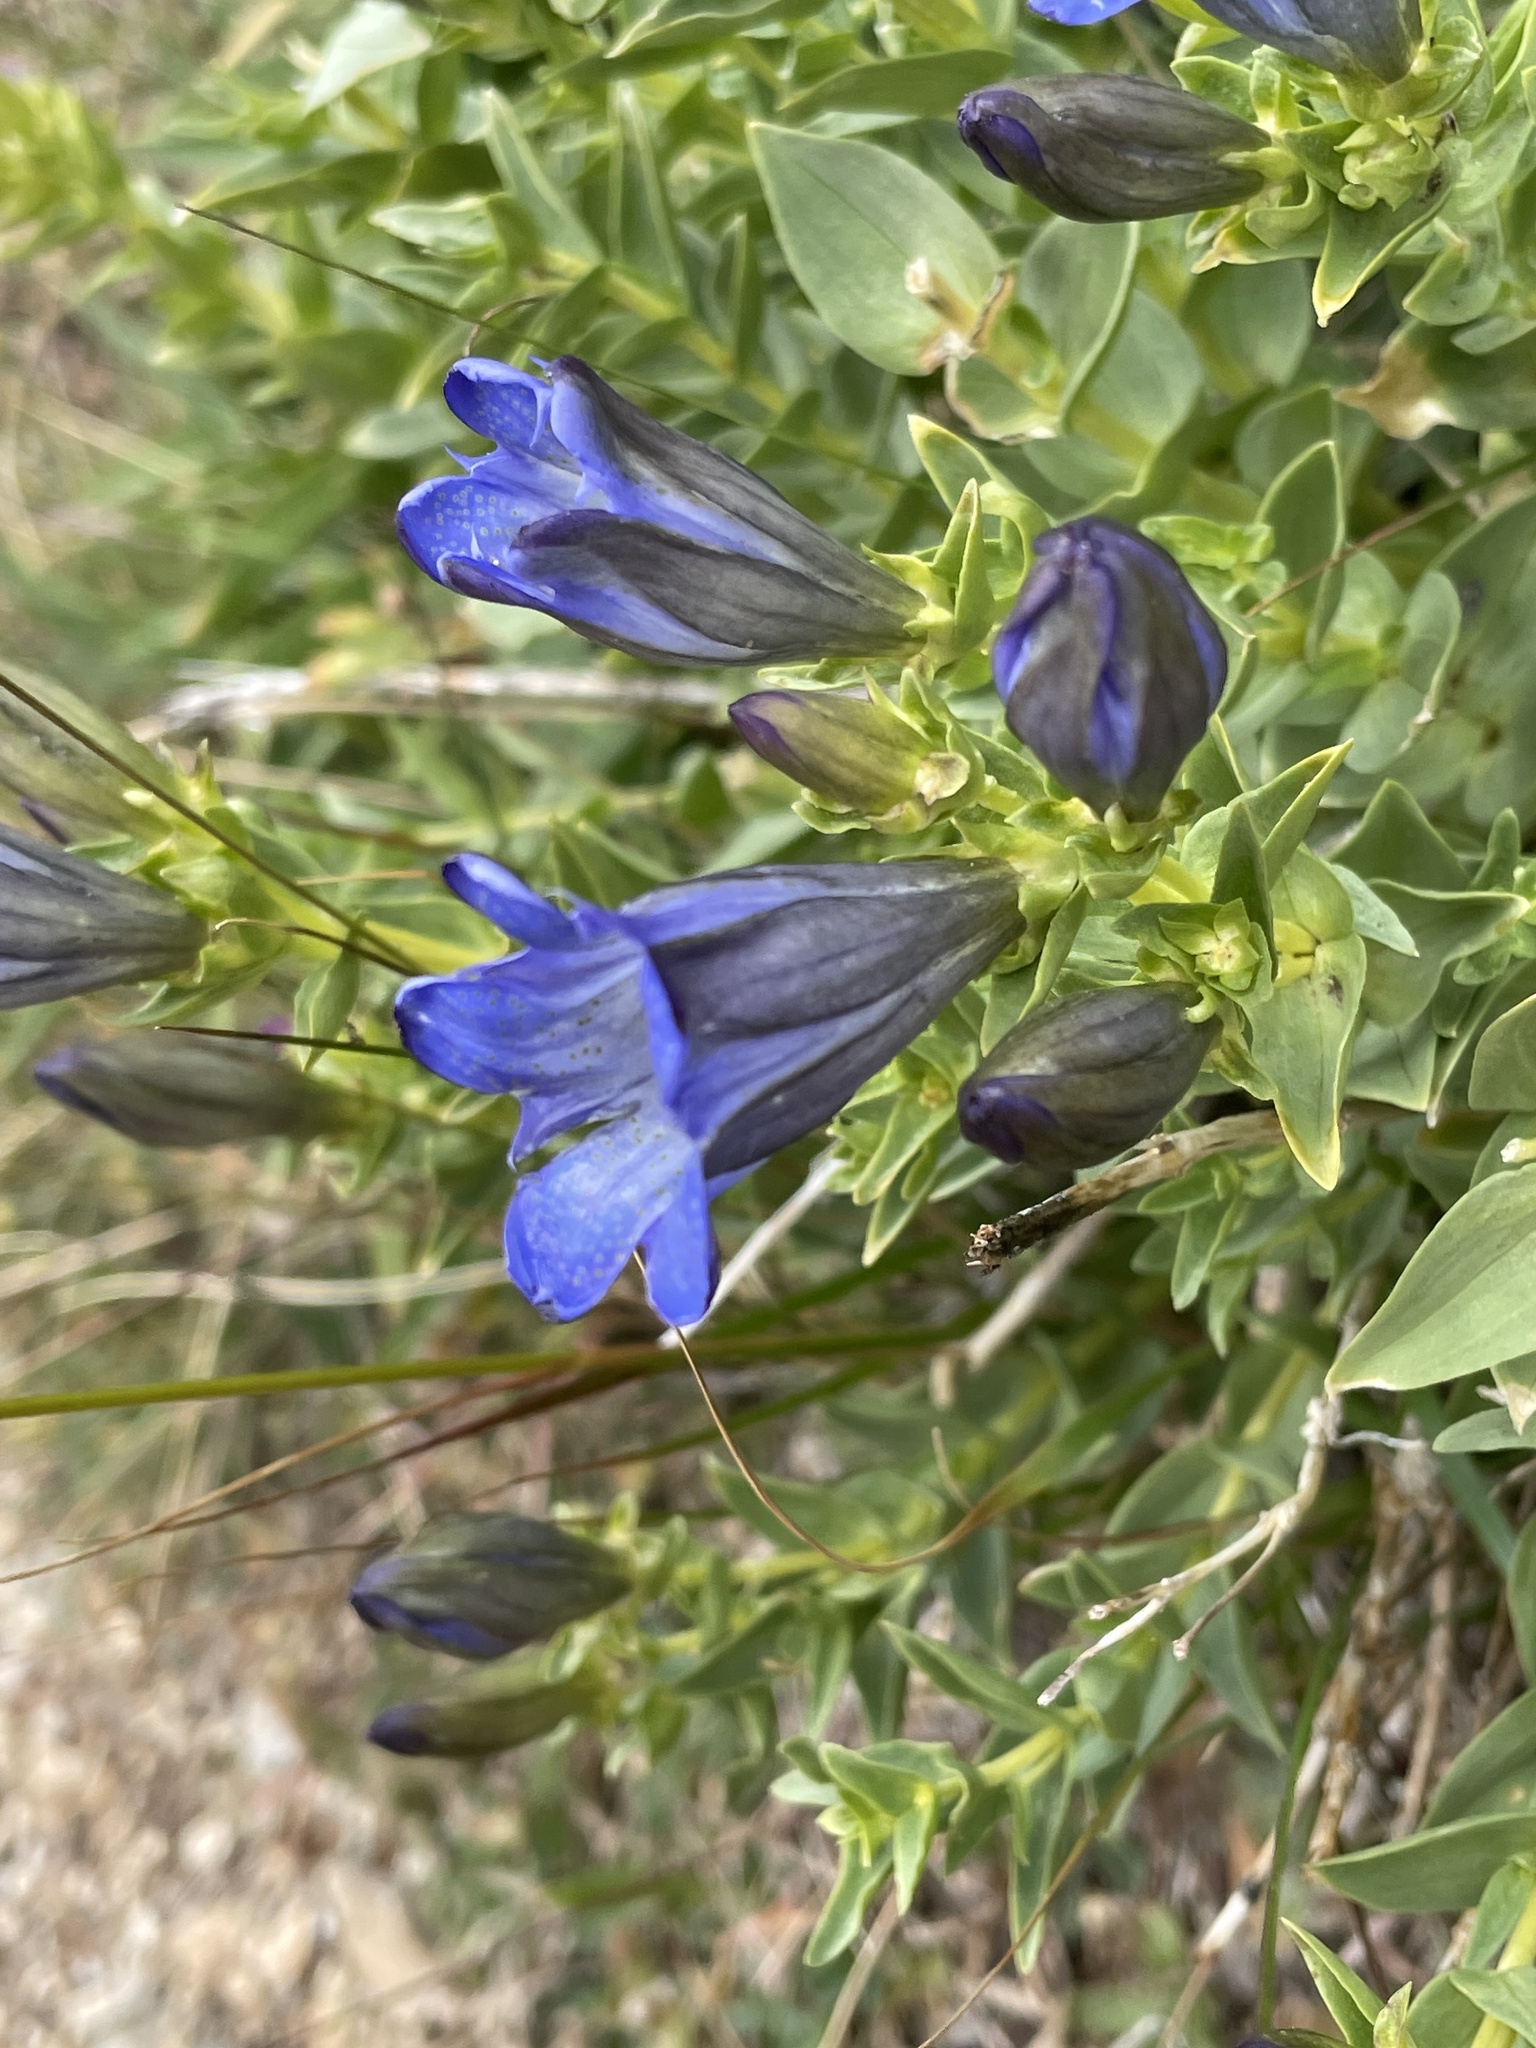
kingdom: Plantae
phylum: Tracheophyta
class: Magnoliopsida
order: Gentianales
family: Gentianaceae
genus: Gentiana
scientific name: Gentiana calycosa
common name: Rainier pleated gentian
